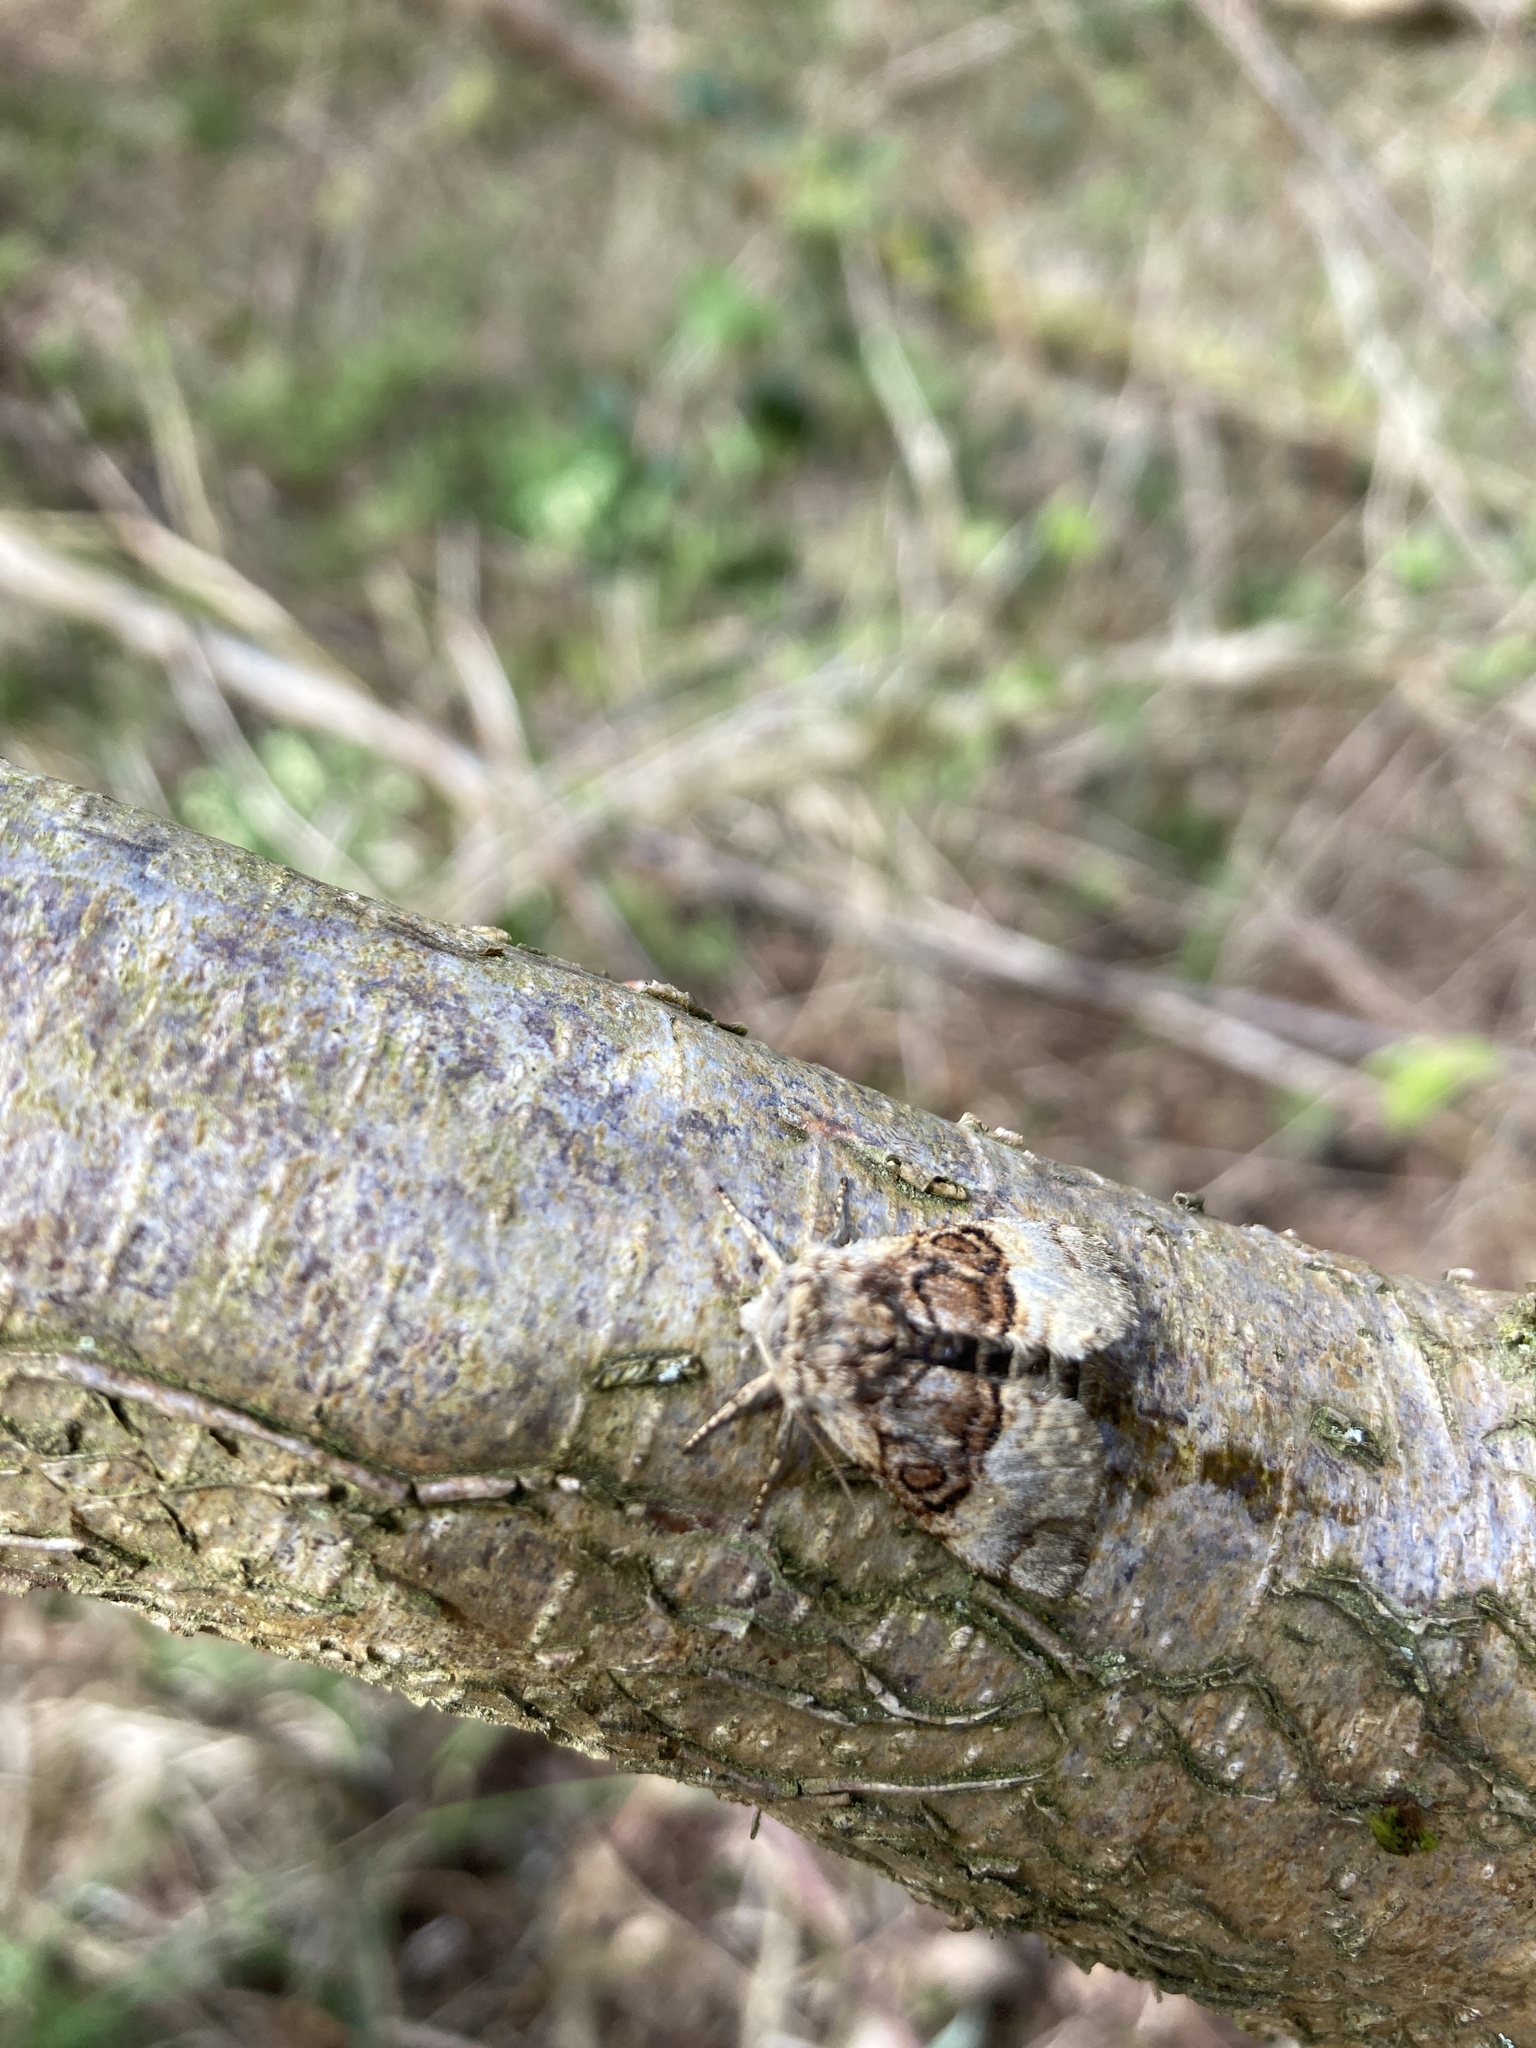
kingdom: Animalia
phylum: Arthropoda
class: Insecta
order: Lepidoptera
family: Noctuidae
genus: Colocasia
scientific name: Colocasia coryli
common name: Nut-tree tussock
